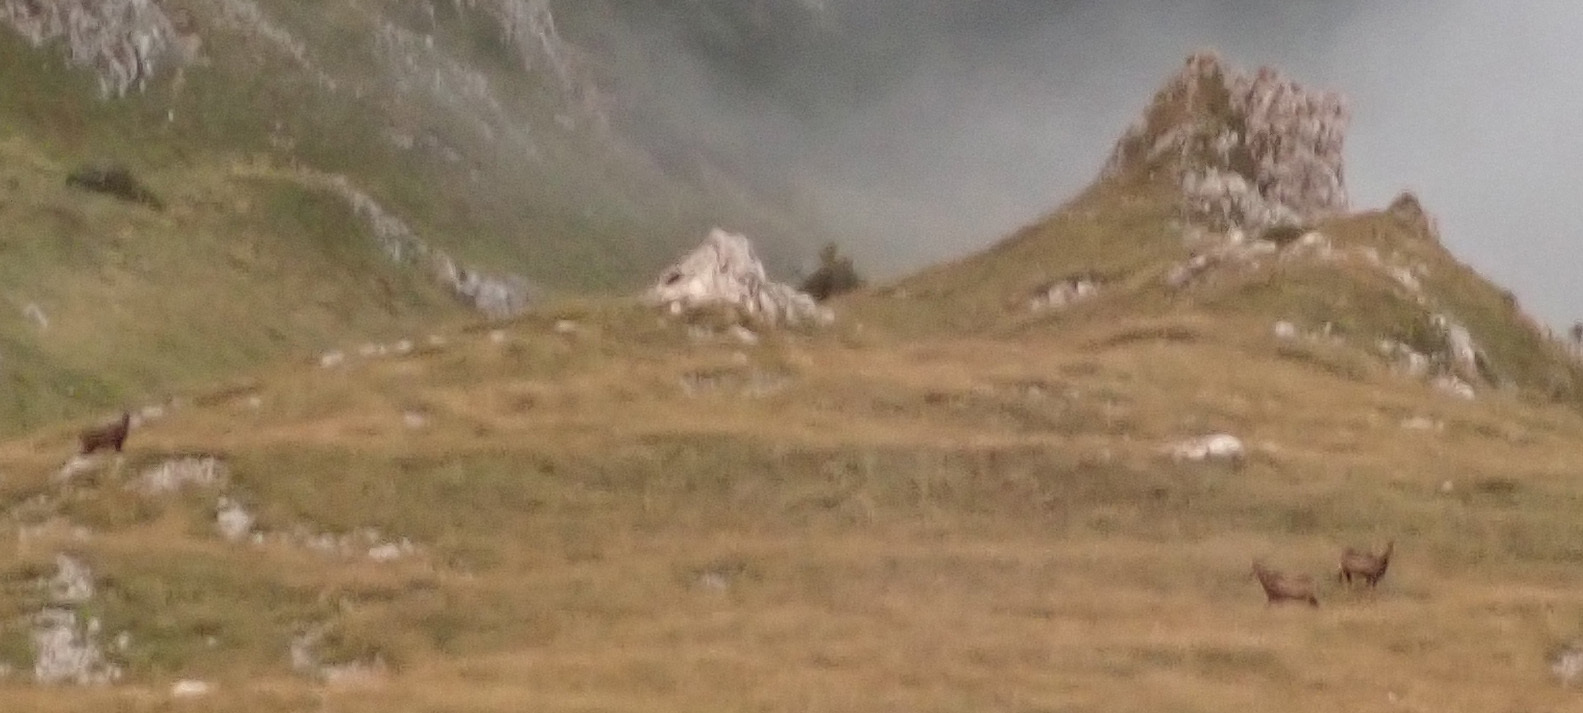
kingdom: Animalia
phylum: Chordata
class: Mammalia
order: Artiodactyla
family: Bovidae
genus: Rupicapra
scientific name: Rupicapra rupicapra
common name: Chamois
